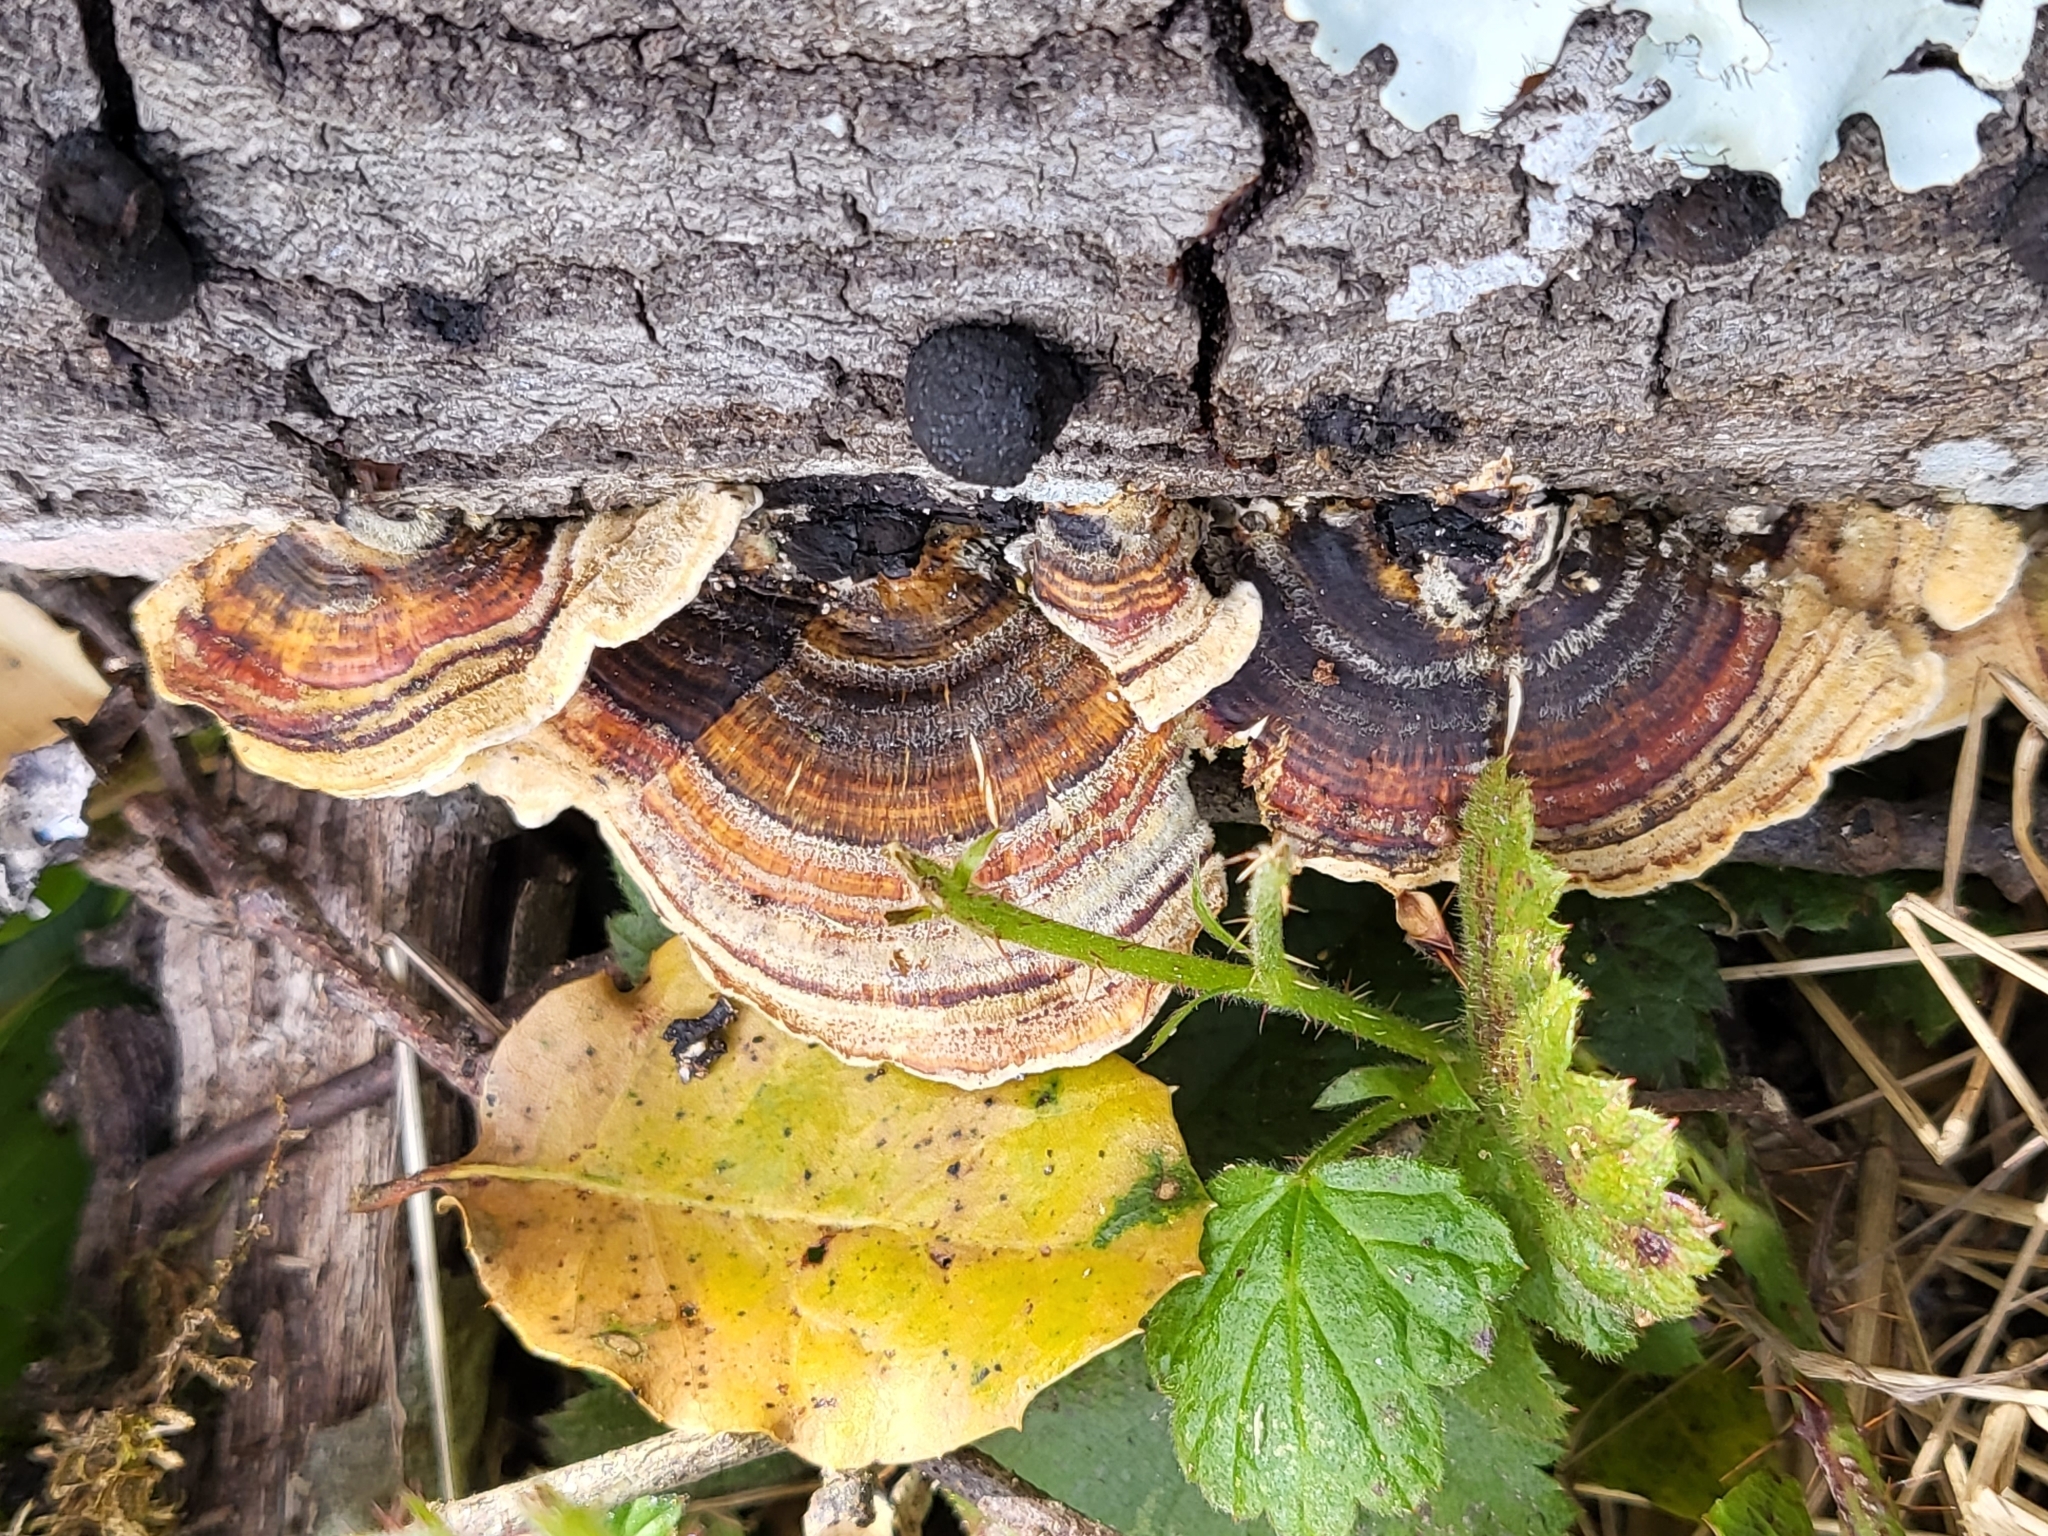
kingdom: Fungi
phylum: Basidiomycota
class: Agaricomycetes
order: Polyporales
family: Polyporaceae
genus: Trametes
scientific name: Trametes versicolor
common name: Turkeytail
